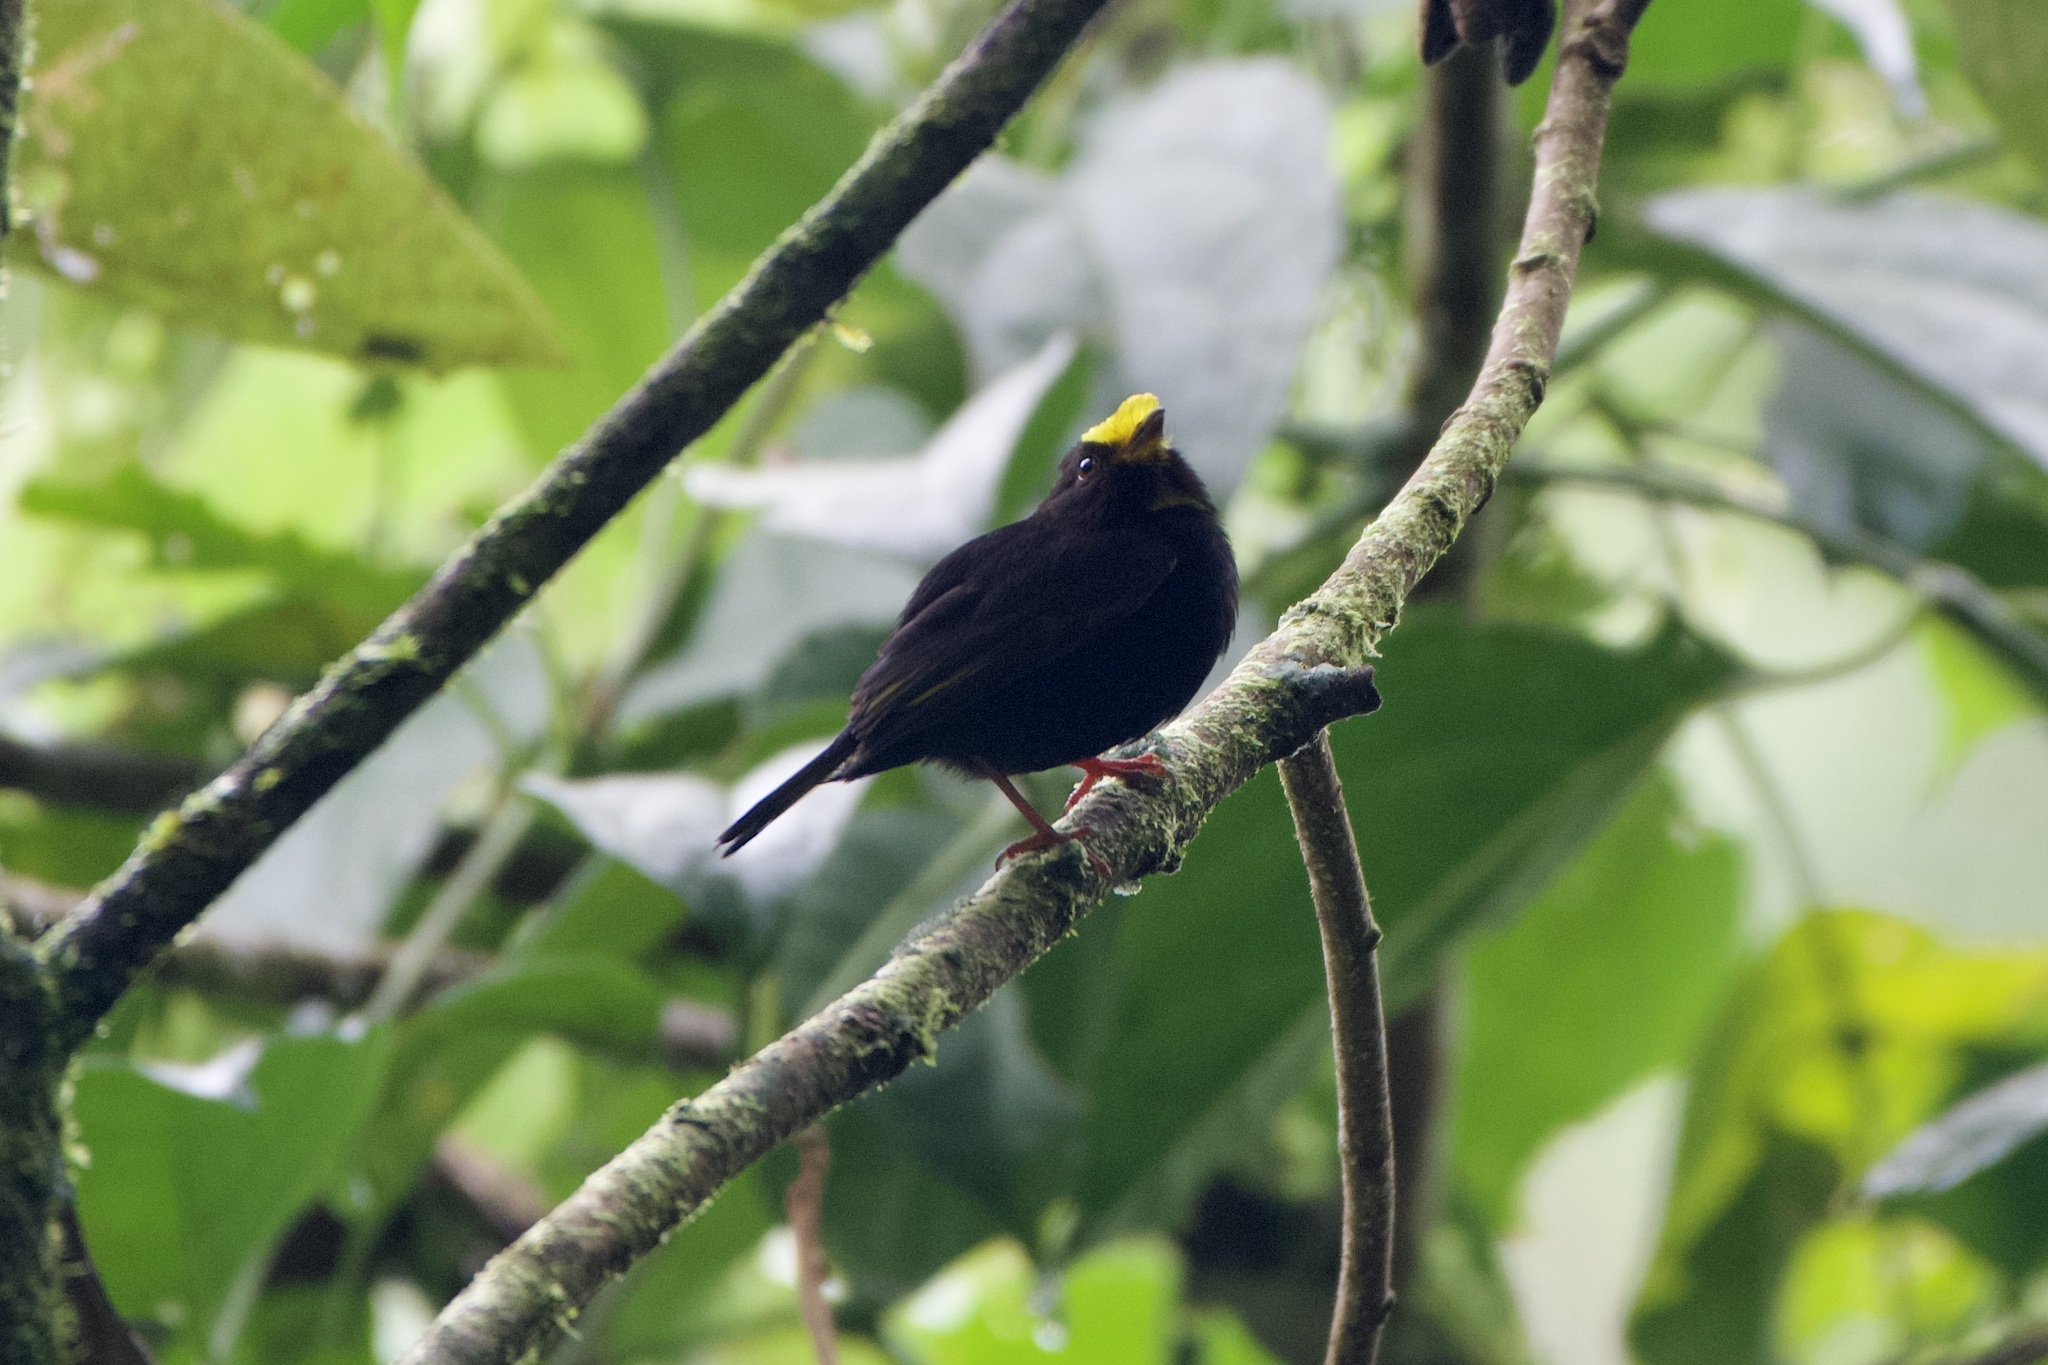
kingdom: Animalia
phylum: Chordata
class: Aves
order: Passeriformes
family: Pipridae
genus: Masius
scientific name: Masius chrysopterus
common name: Golden-winged manakin
